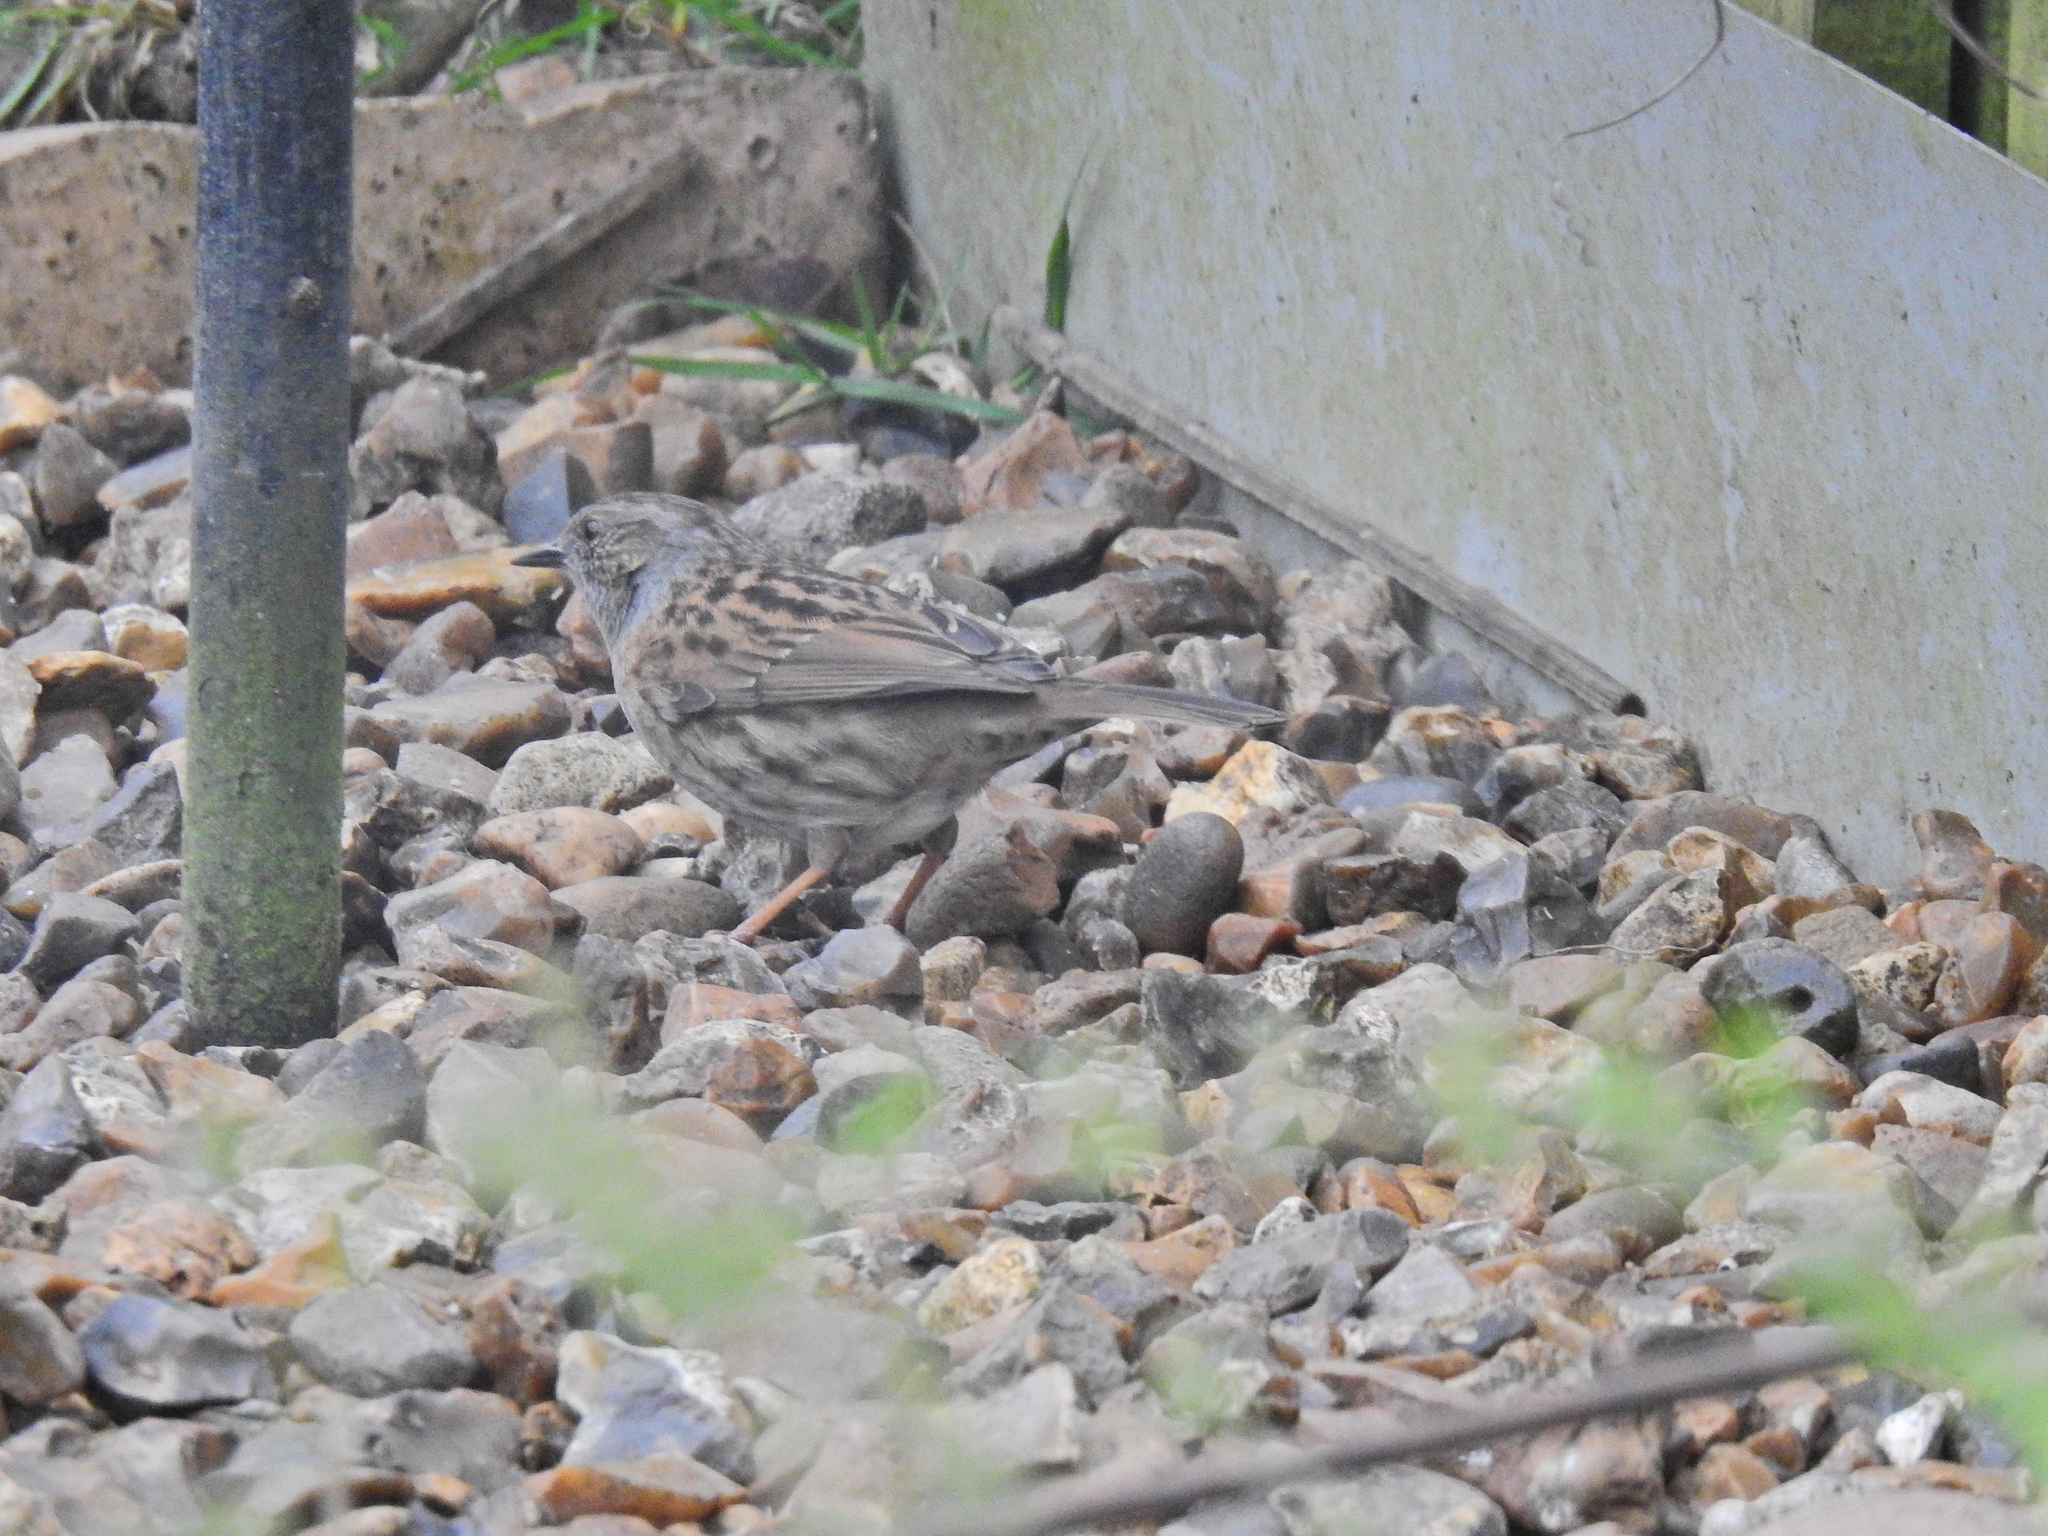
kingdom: Animalia
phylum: Chordata
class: Aves
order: Passeriformes
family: Prunellidae
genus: Prunella
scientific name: Prunella modularis
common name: Dunnock
